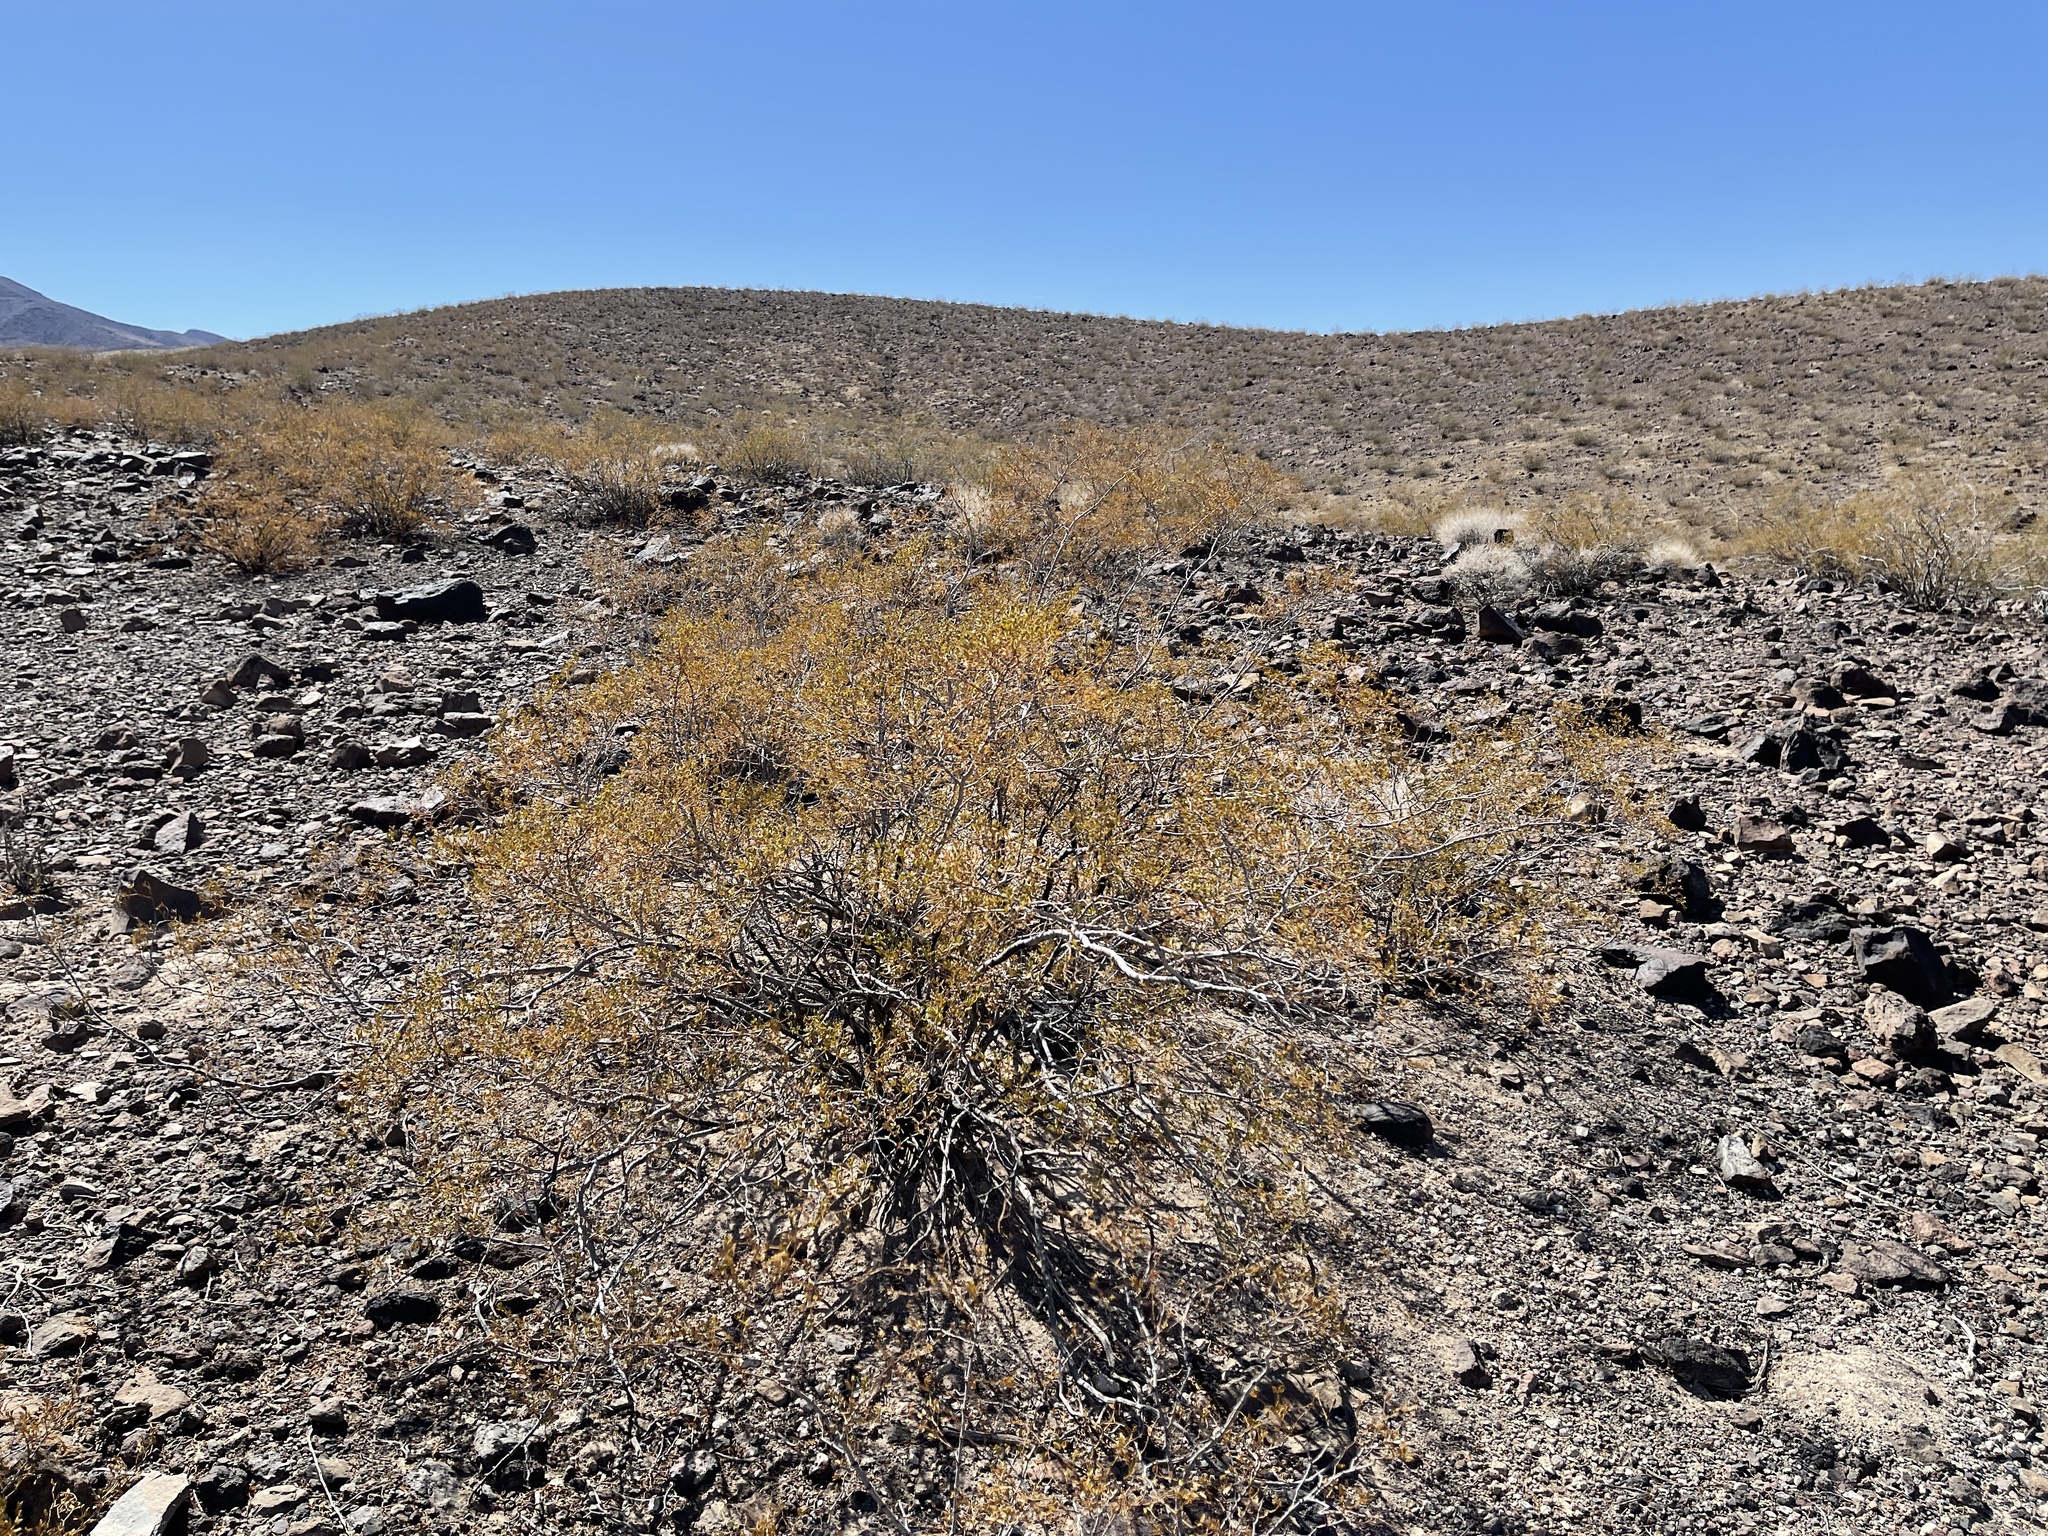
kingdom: Plantae
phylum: Tracheophyta
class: Magnoliopsida
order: Zygophyllales
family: Zygophyllaceae
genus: Larrea
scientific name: Larrea tridentata
